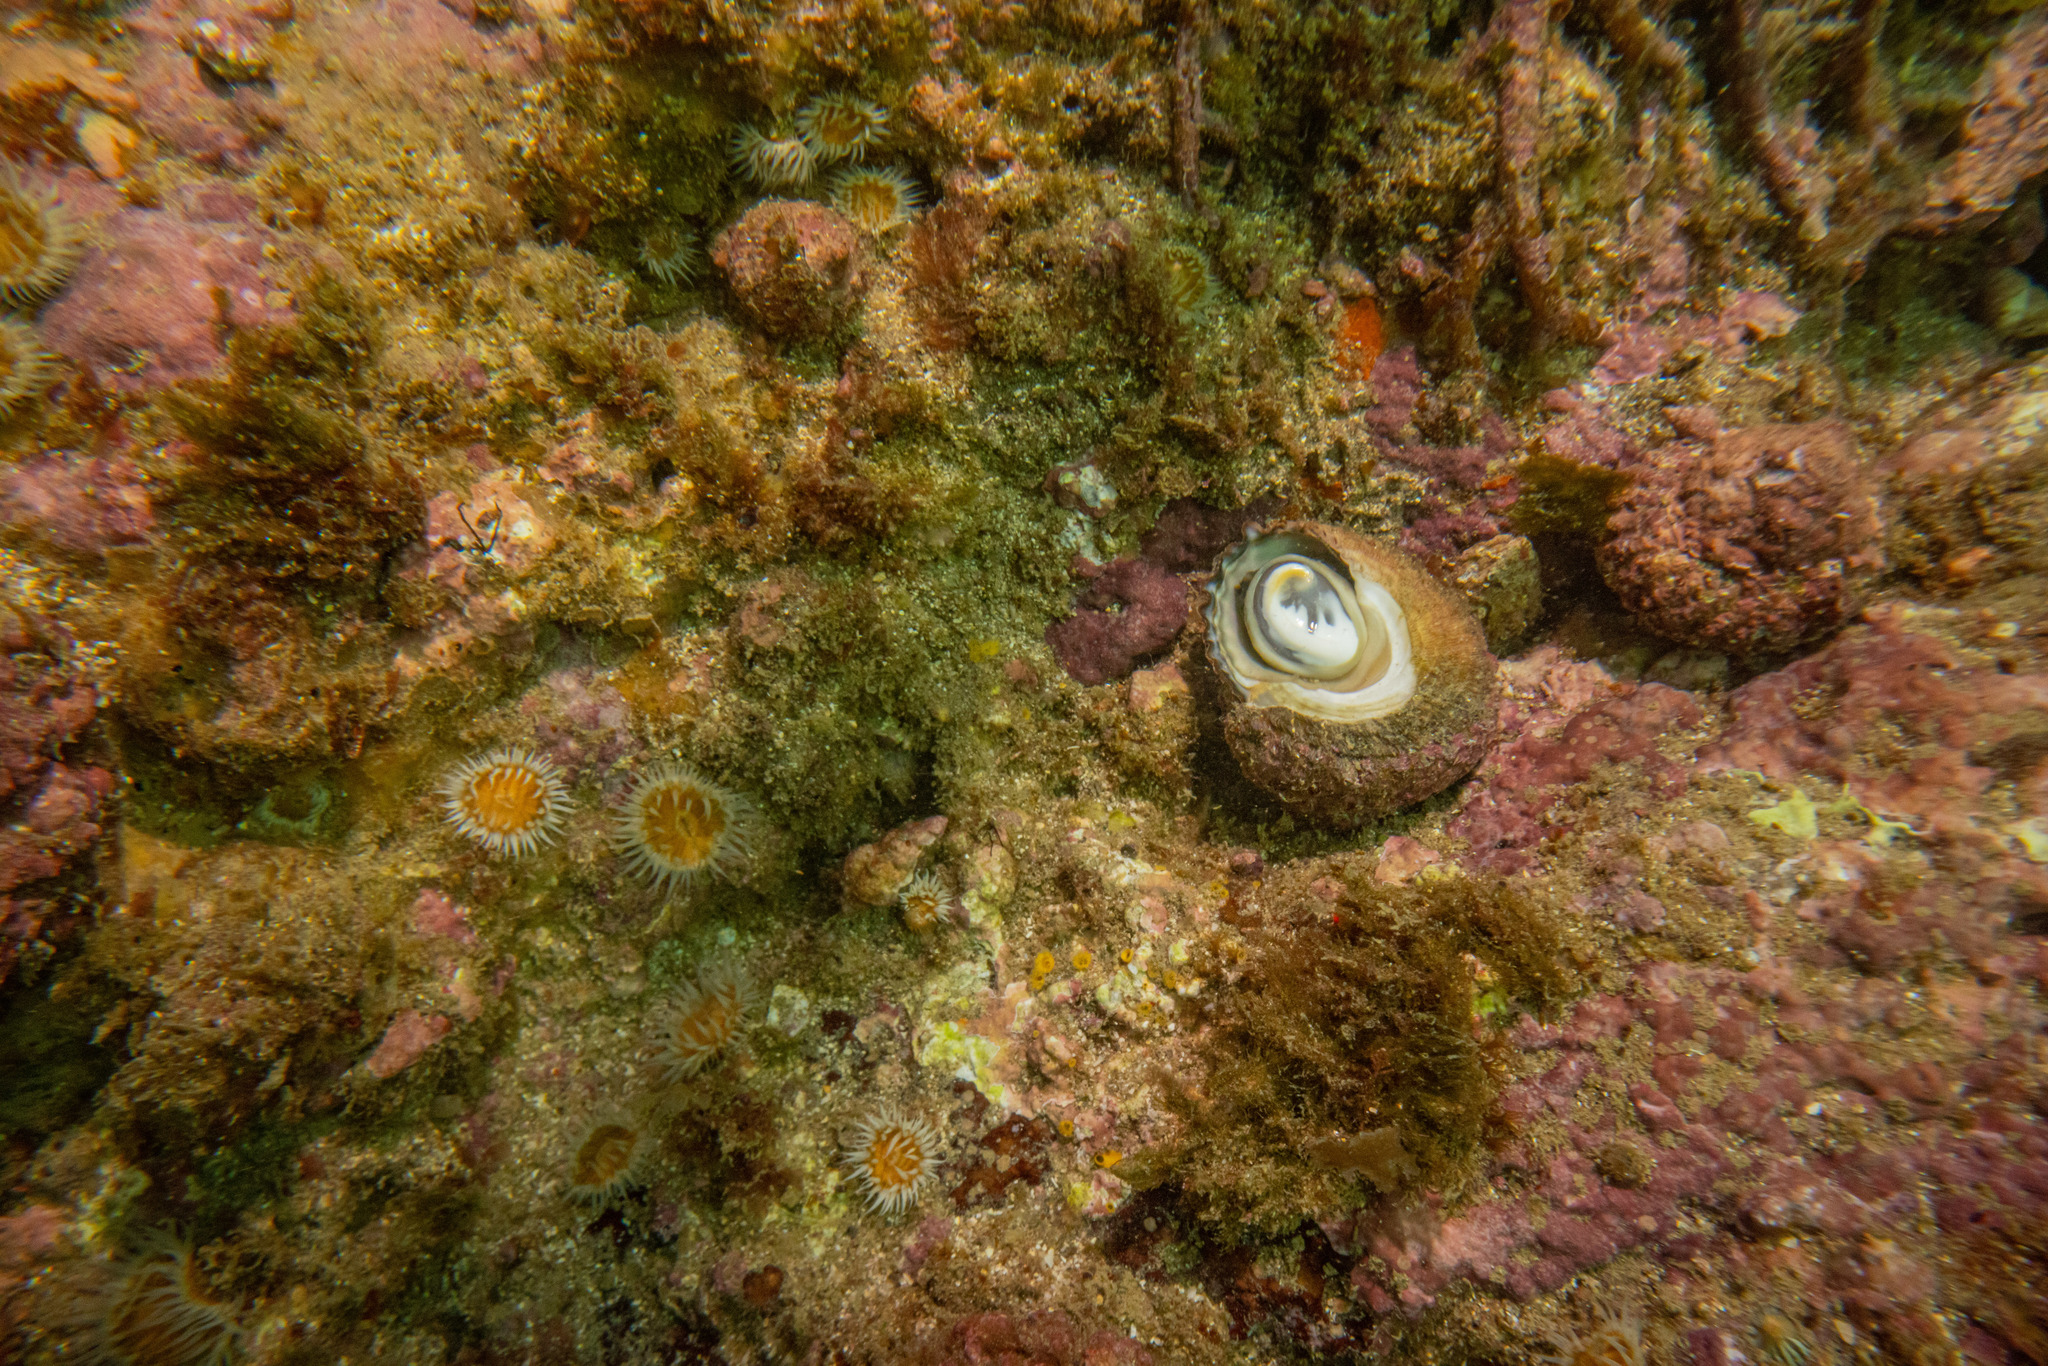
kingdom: Animalia
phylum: Mollusca
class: Gastropoda
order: Trochida
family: Turbinidae
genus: Cookia
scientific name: Cookia sulcata
